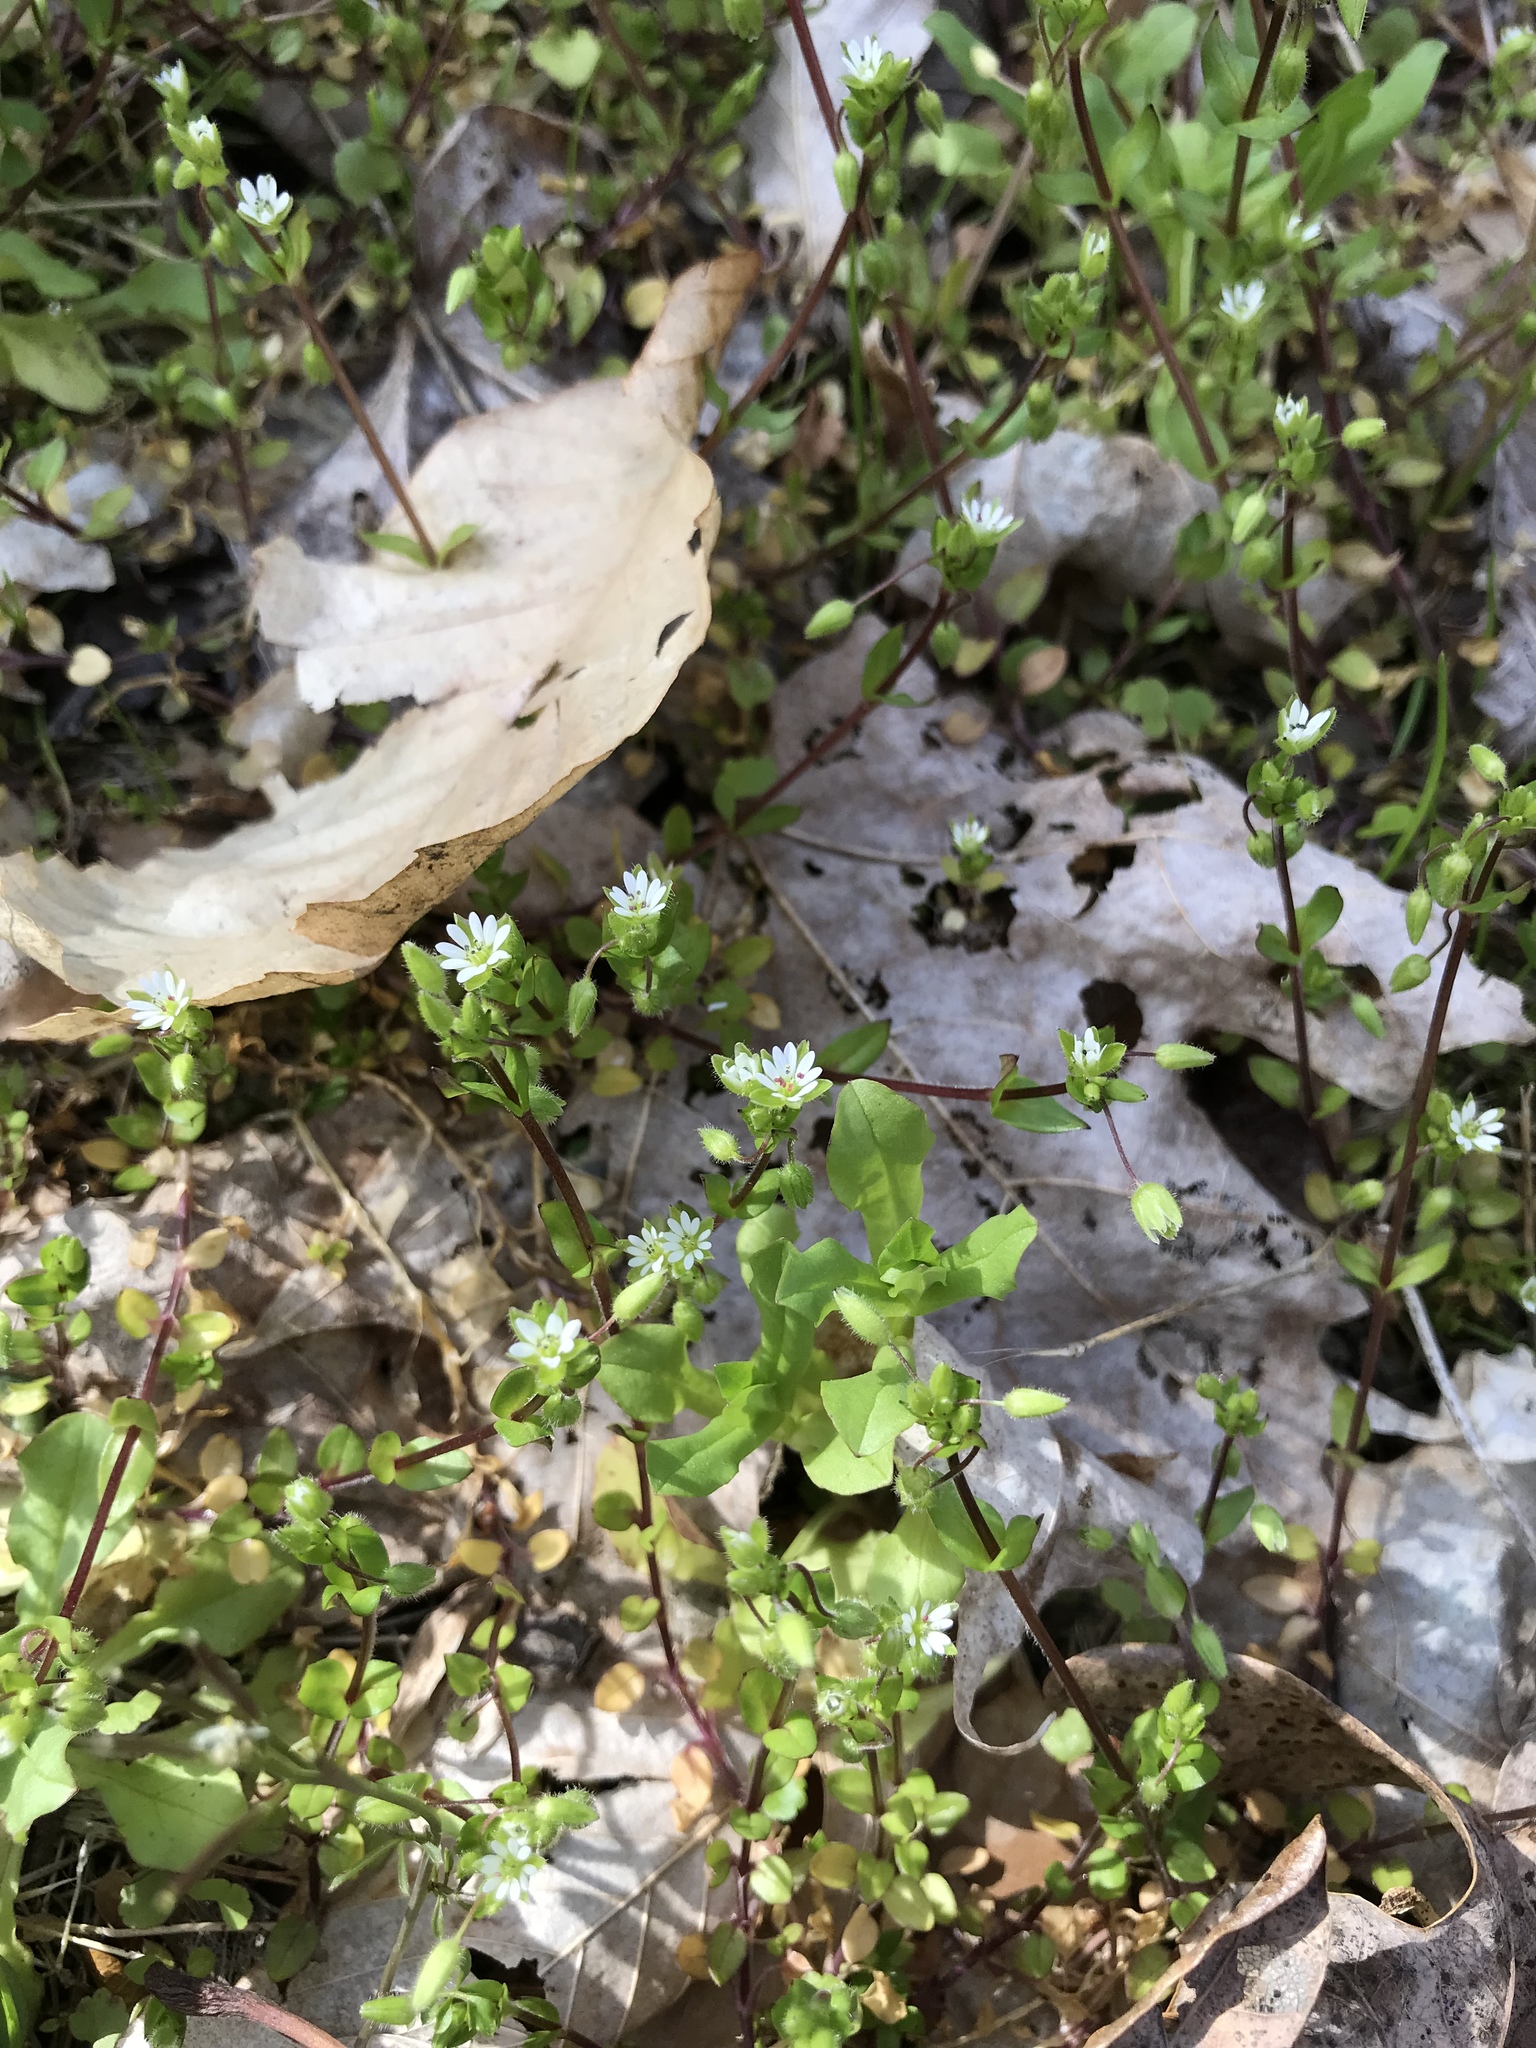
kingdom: Plantae
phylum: Tracheophyta
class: Magnoliopsida
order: Caryophyllales
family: Caryophyllaceae
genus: Stellaria
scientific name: Stellaria media
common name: Common chickweed
